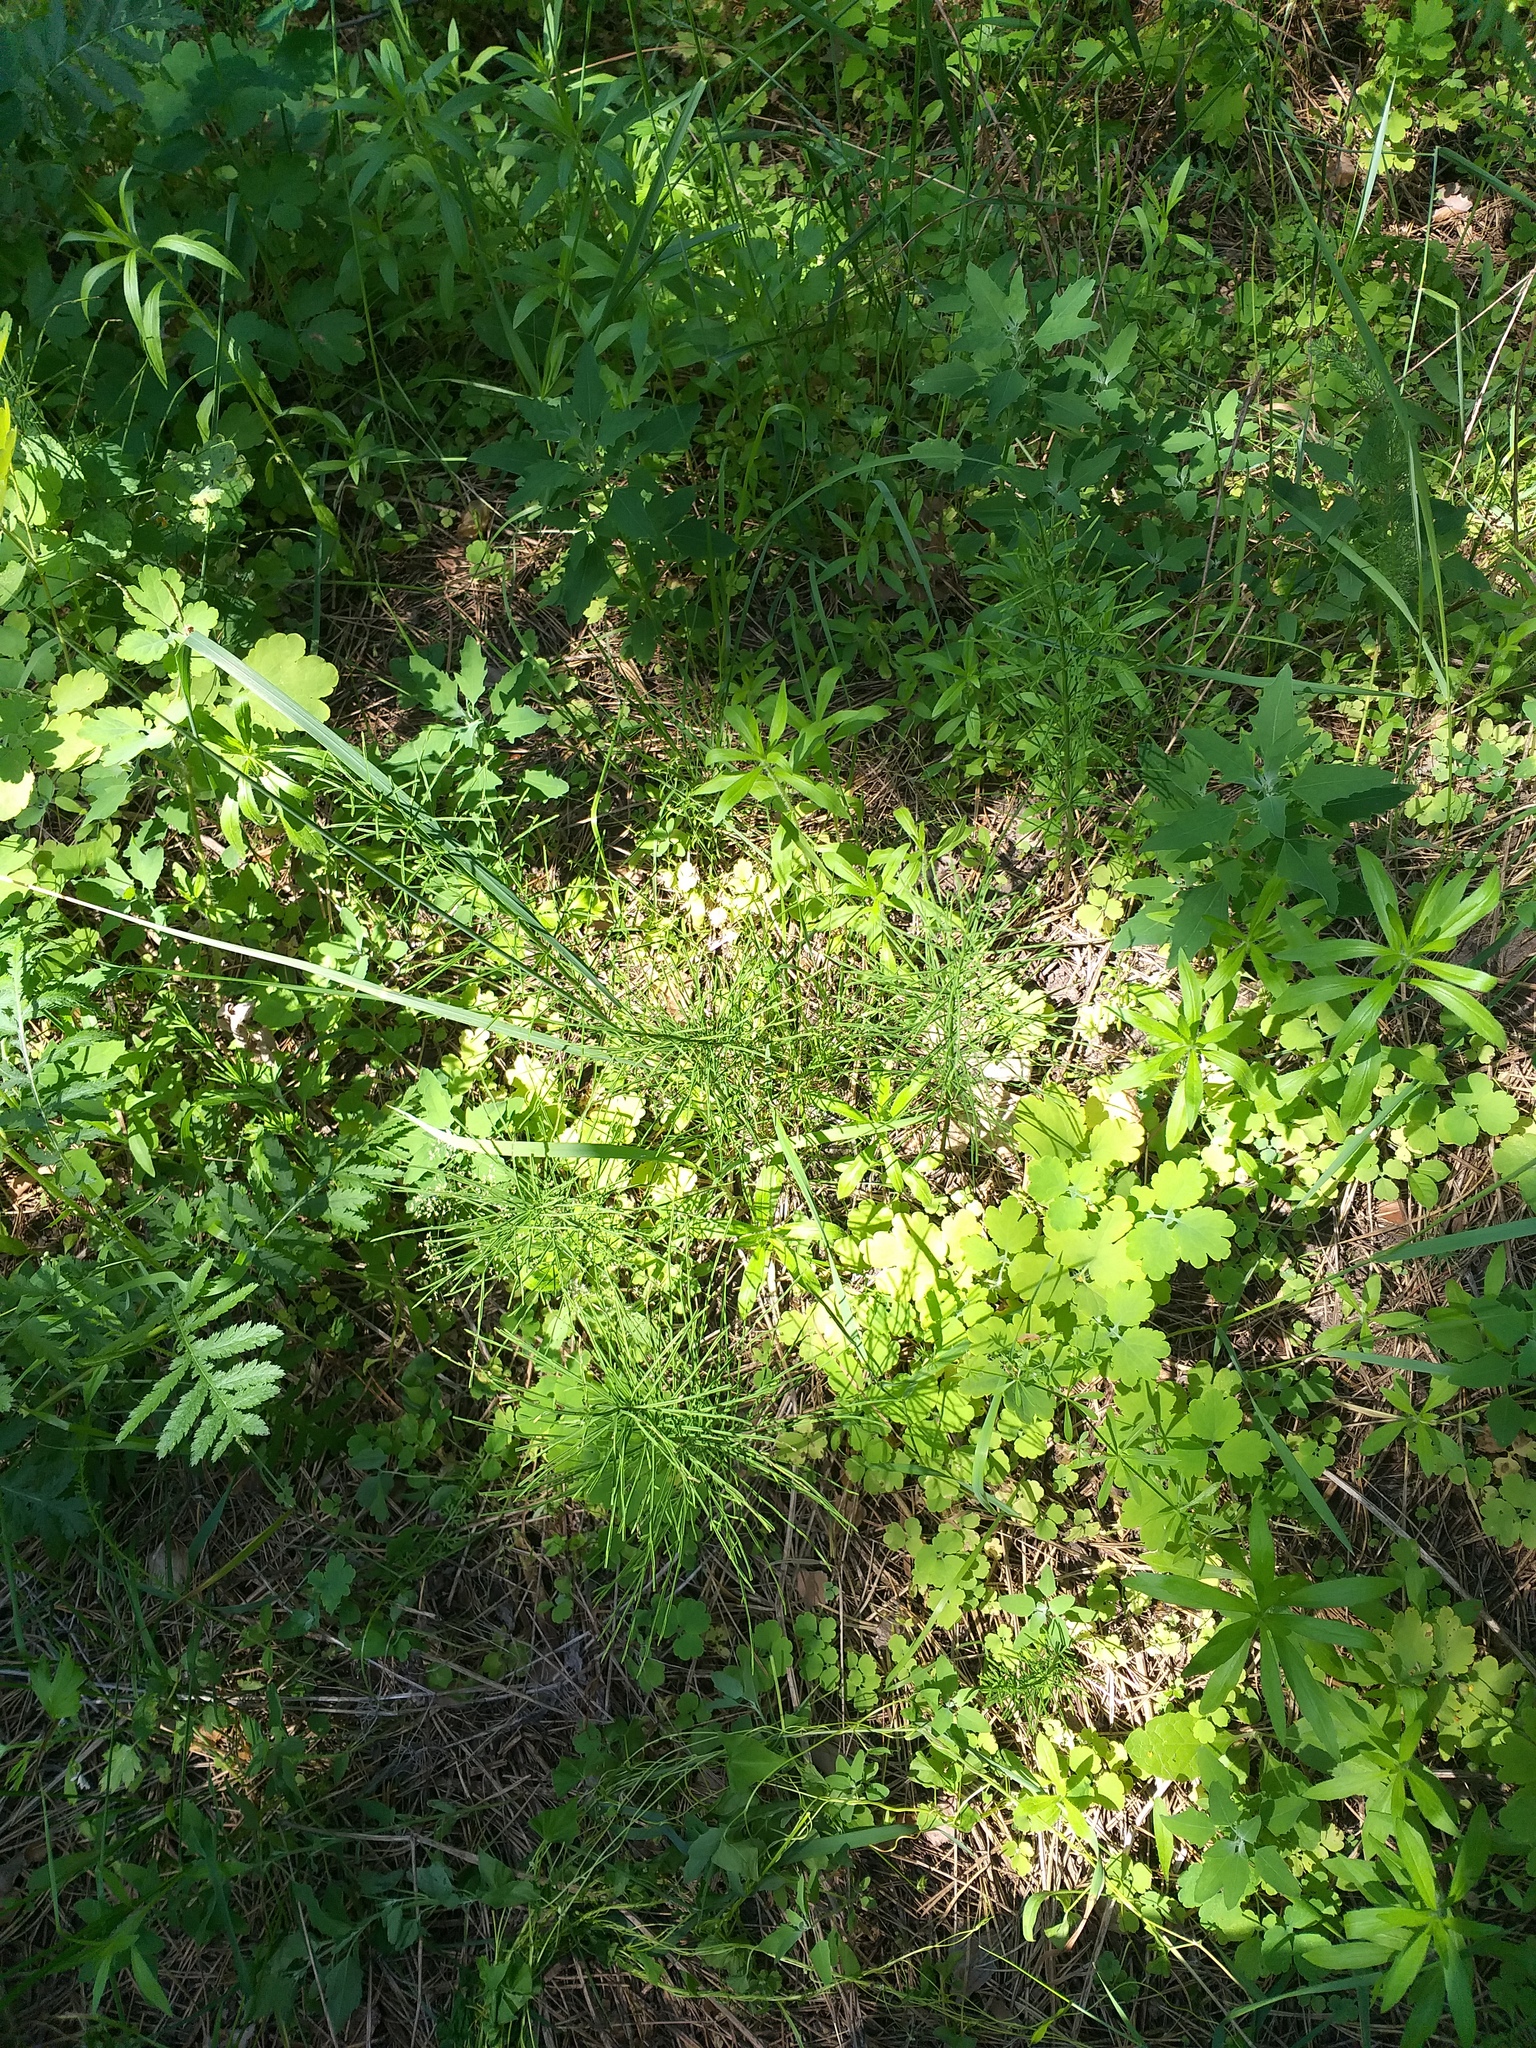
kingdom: Plantae
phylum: Tracheophyta
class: Polypodiopsida
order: Equisetales
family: Equisetaceae
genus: Equisetum
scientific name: Equisetum arvense
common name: Field horsetail
